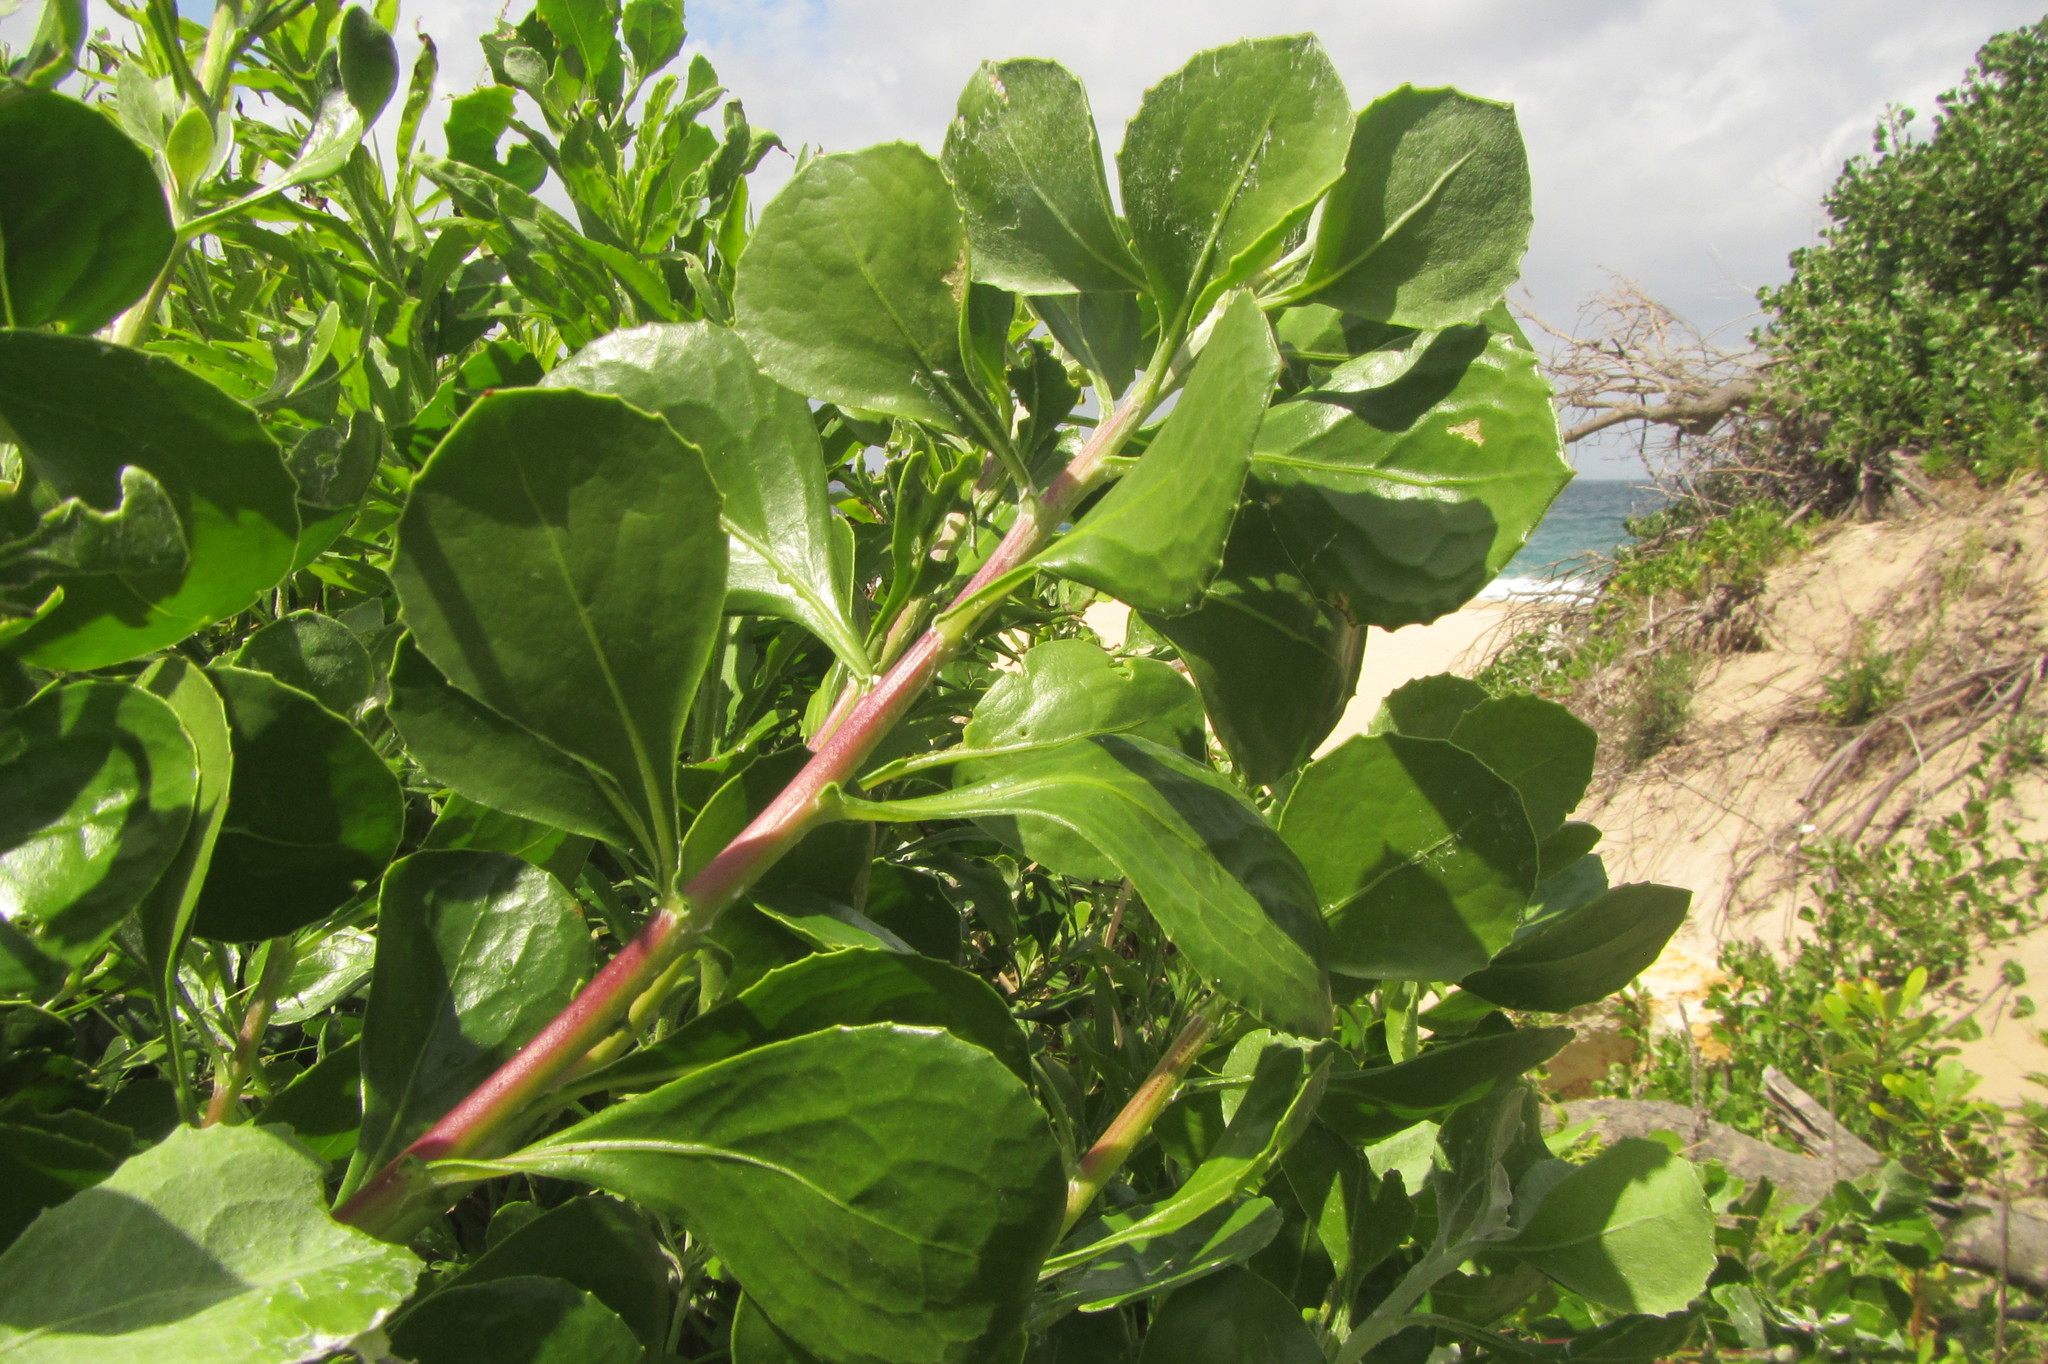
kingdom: Plantae
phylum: Tracheophyta
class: Magnoliopsida
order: Asterales
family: Asteraceae
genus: Osteospermum
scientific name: Osteospermum moniliferum
